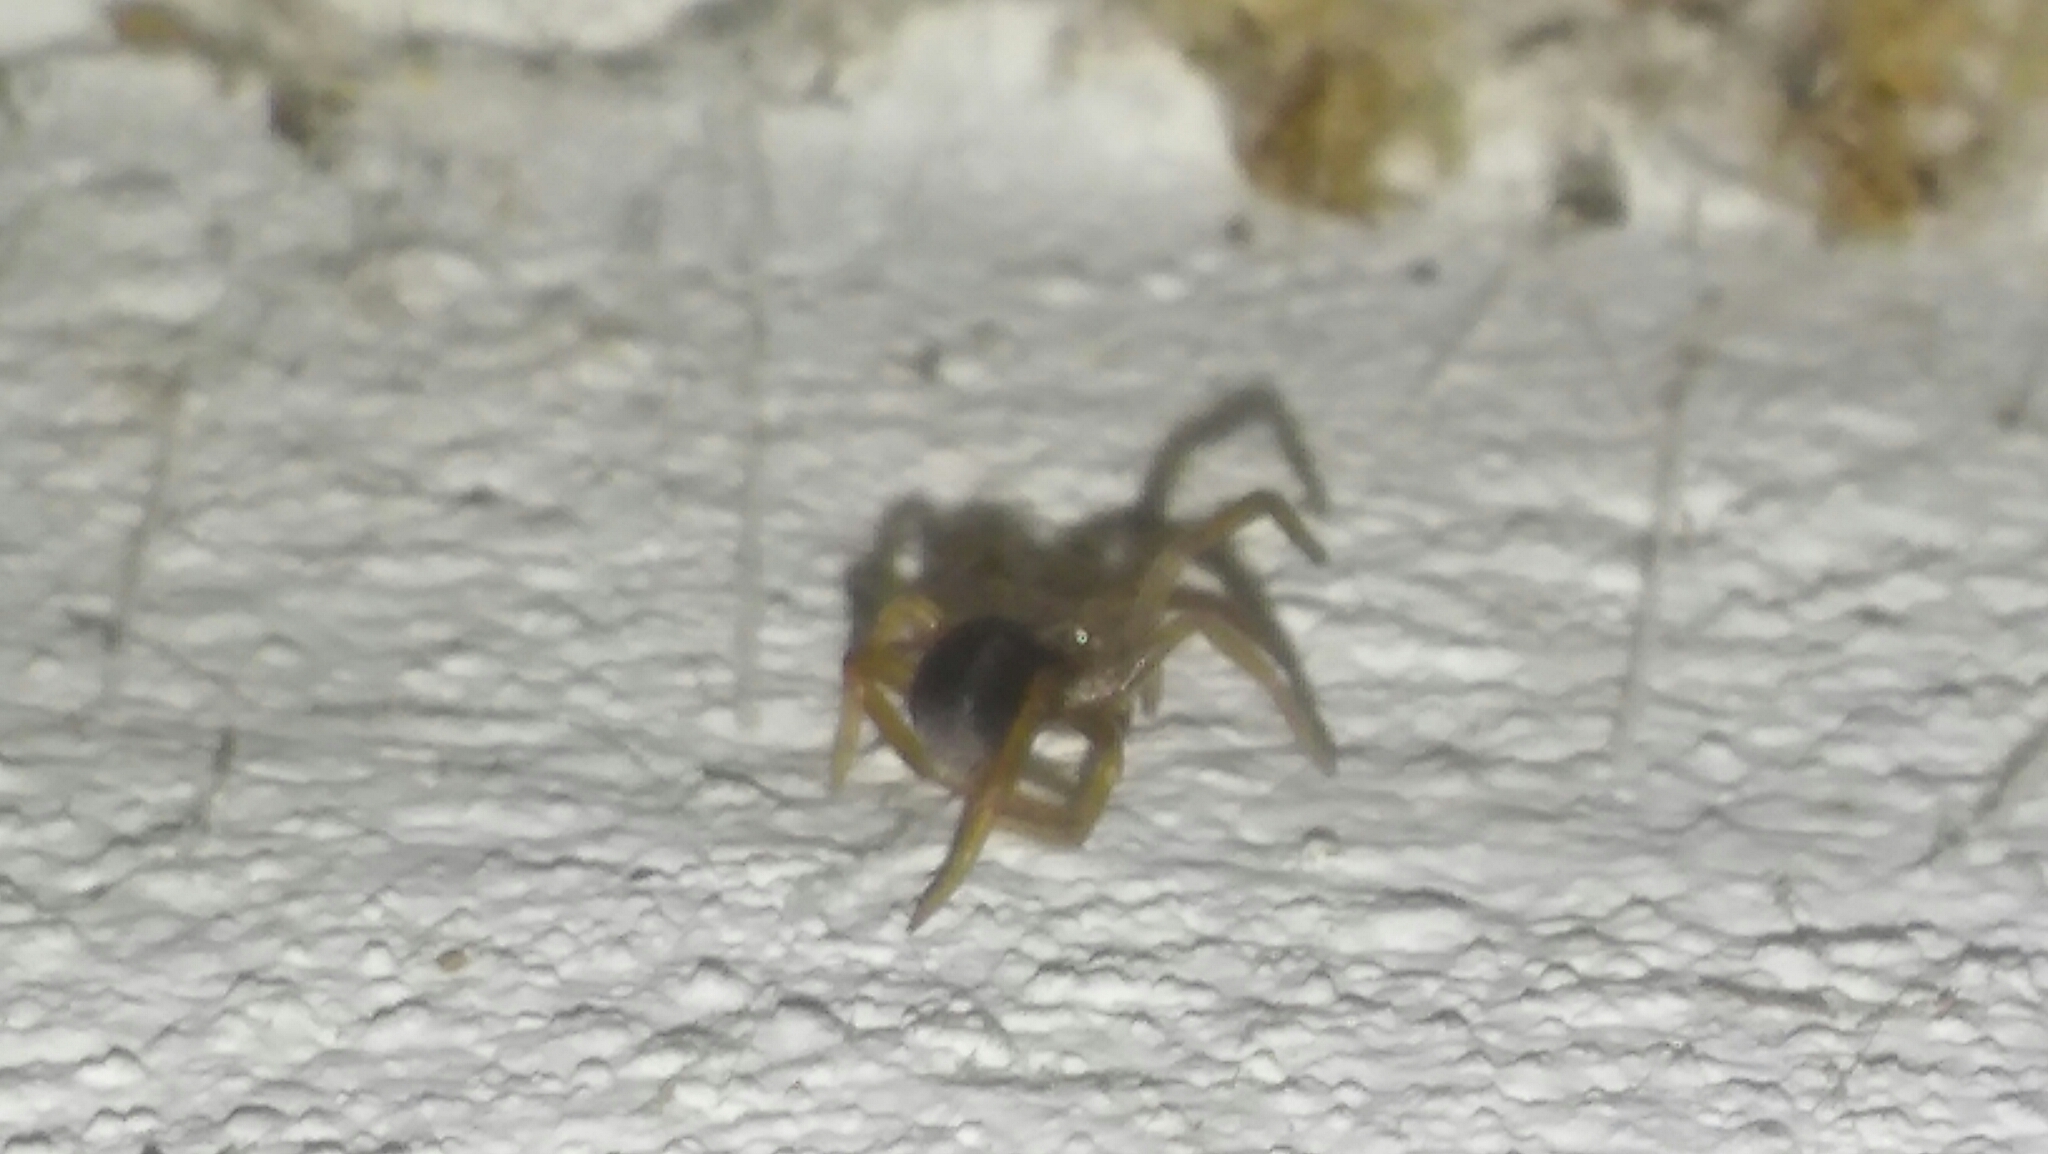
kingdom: Animalia
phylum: Arthropoda
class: Arachnida
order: Araneae
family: Filistatidae
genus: Kukulcania
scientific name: Kukulcania hibernalis
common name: Crevice weaver
